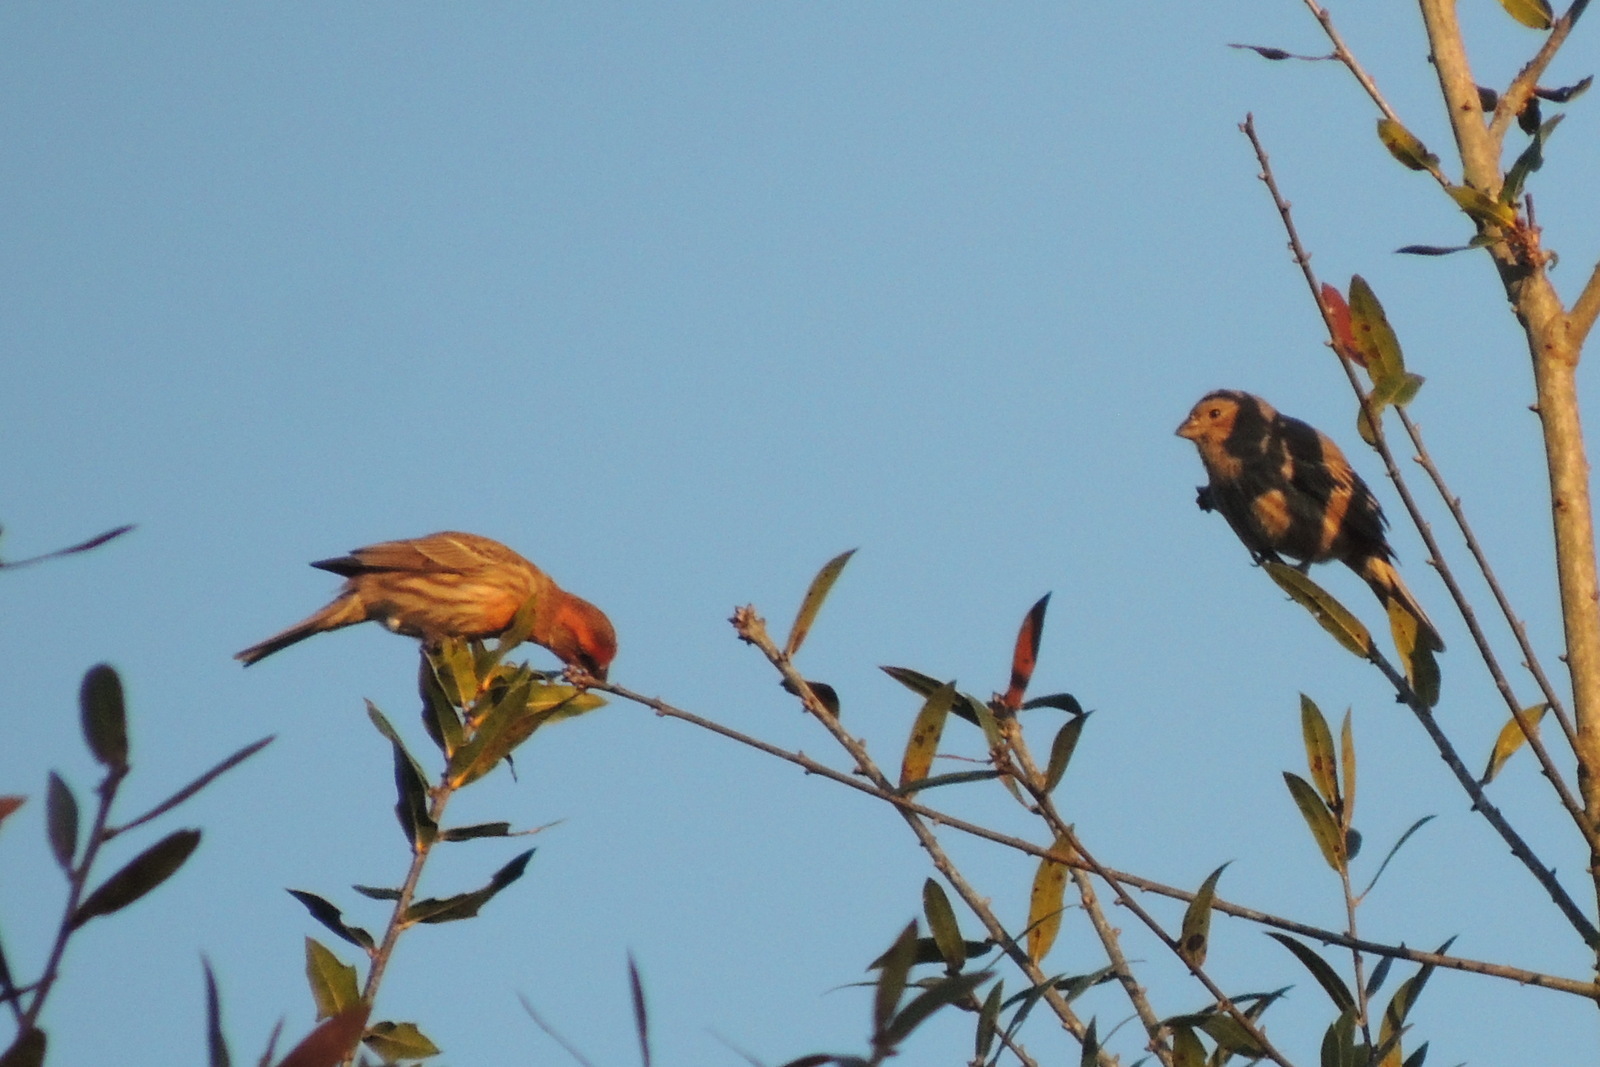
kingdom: Animalia
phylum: Chordata
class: Aves
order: Passeriformes
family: Fringillidae
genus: Haemorhous
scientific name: Haemorhous mexicanus
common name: House finch
